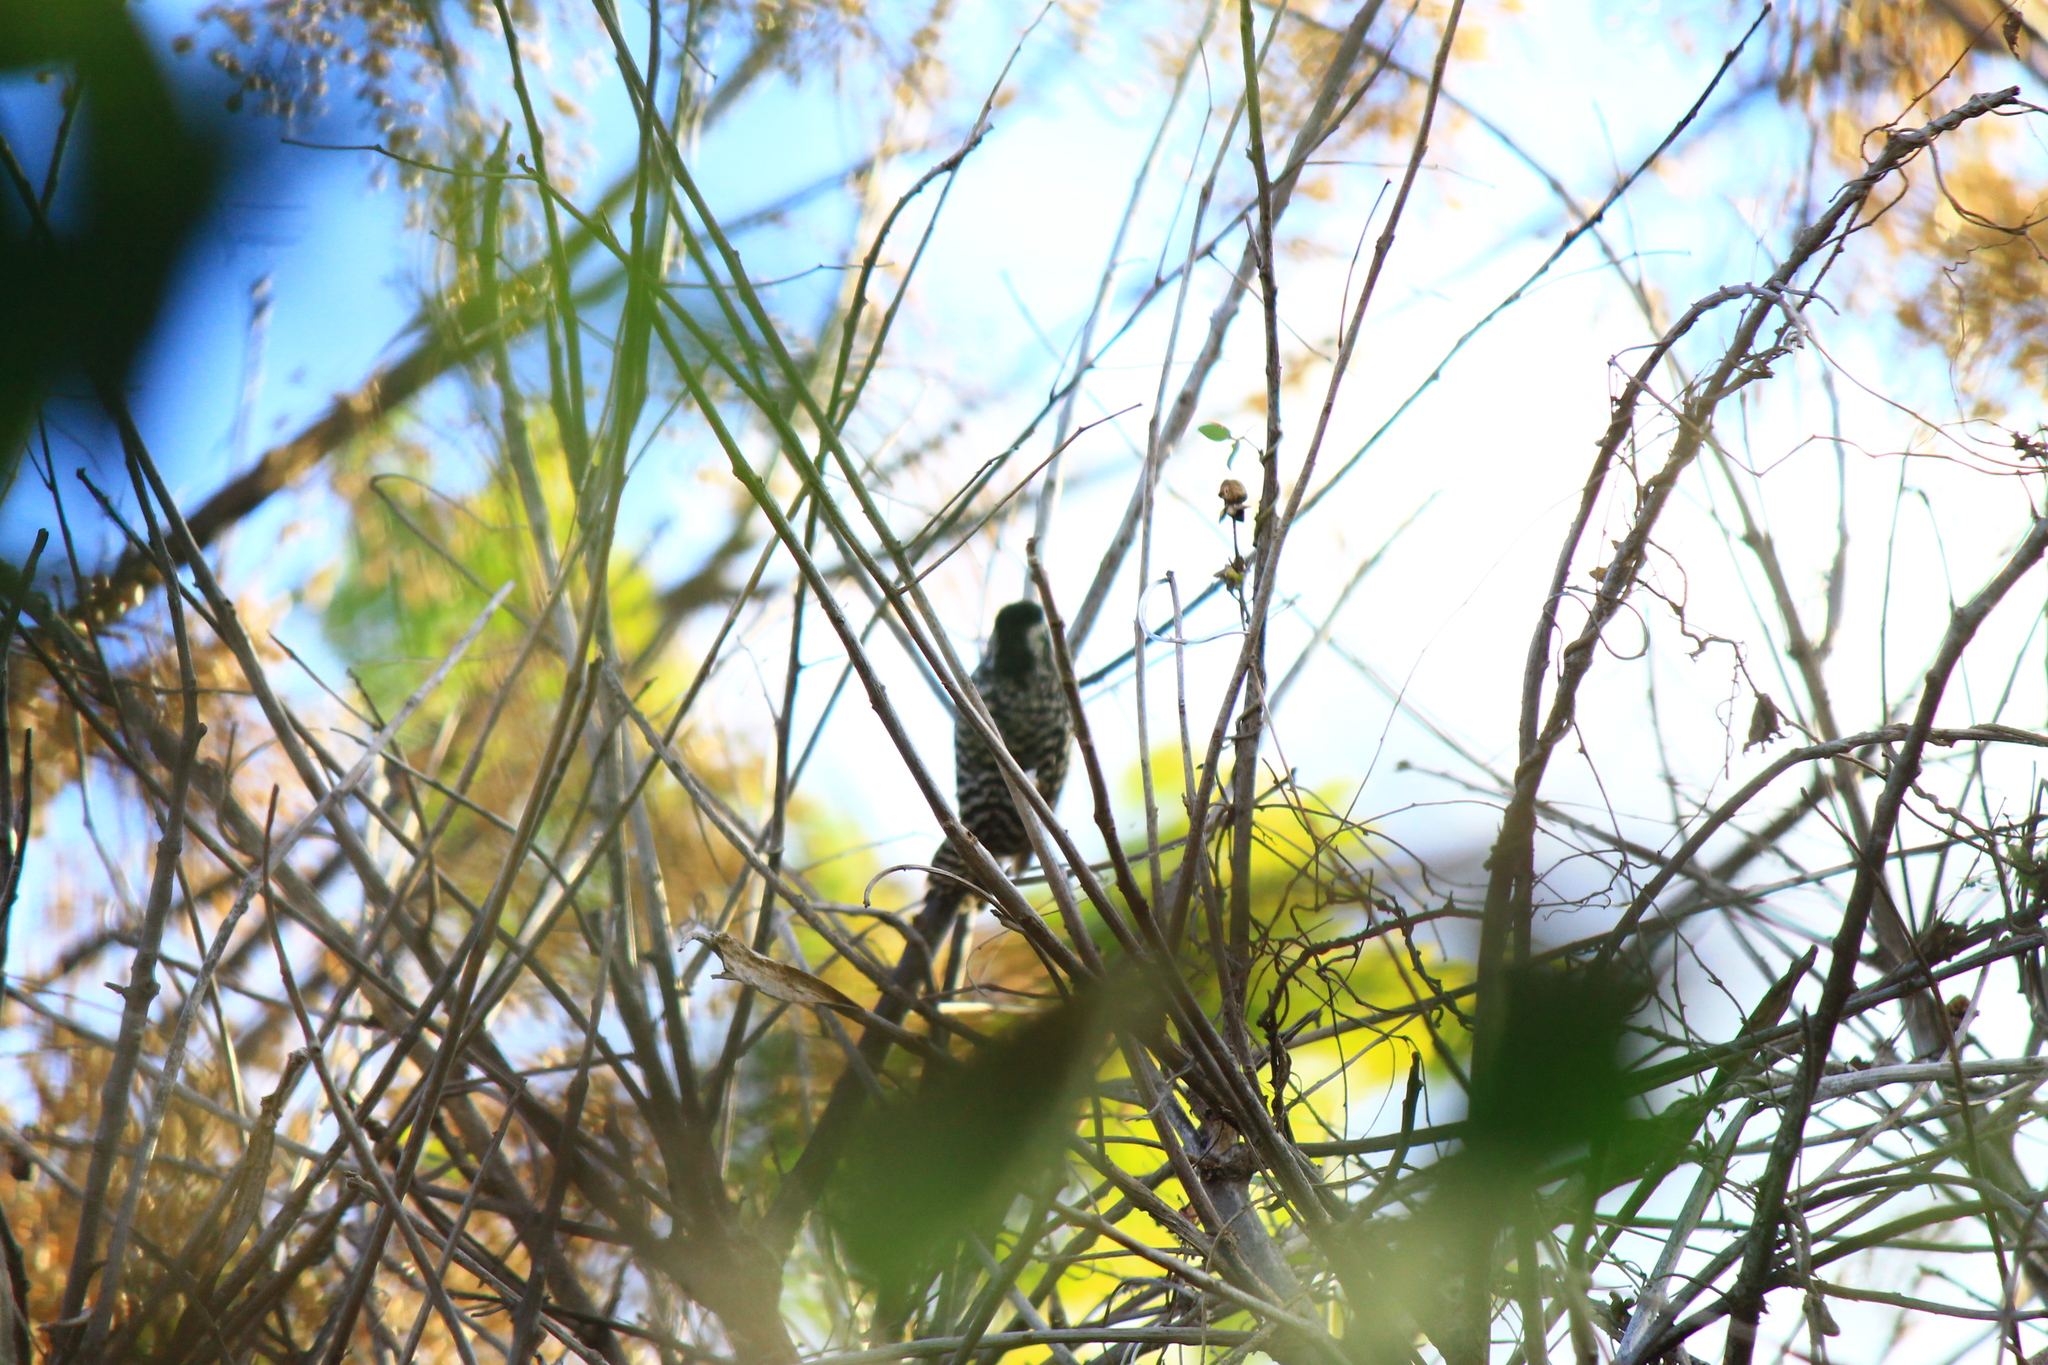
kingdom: Animalia
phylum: Chordata
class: Aves
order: Piciformes
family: Picidae
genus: Veniliornis
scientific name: Veniliornis mixtus
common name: Checkered woodpecker
